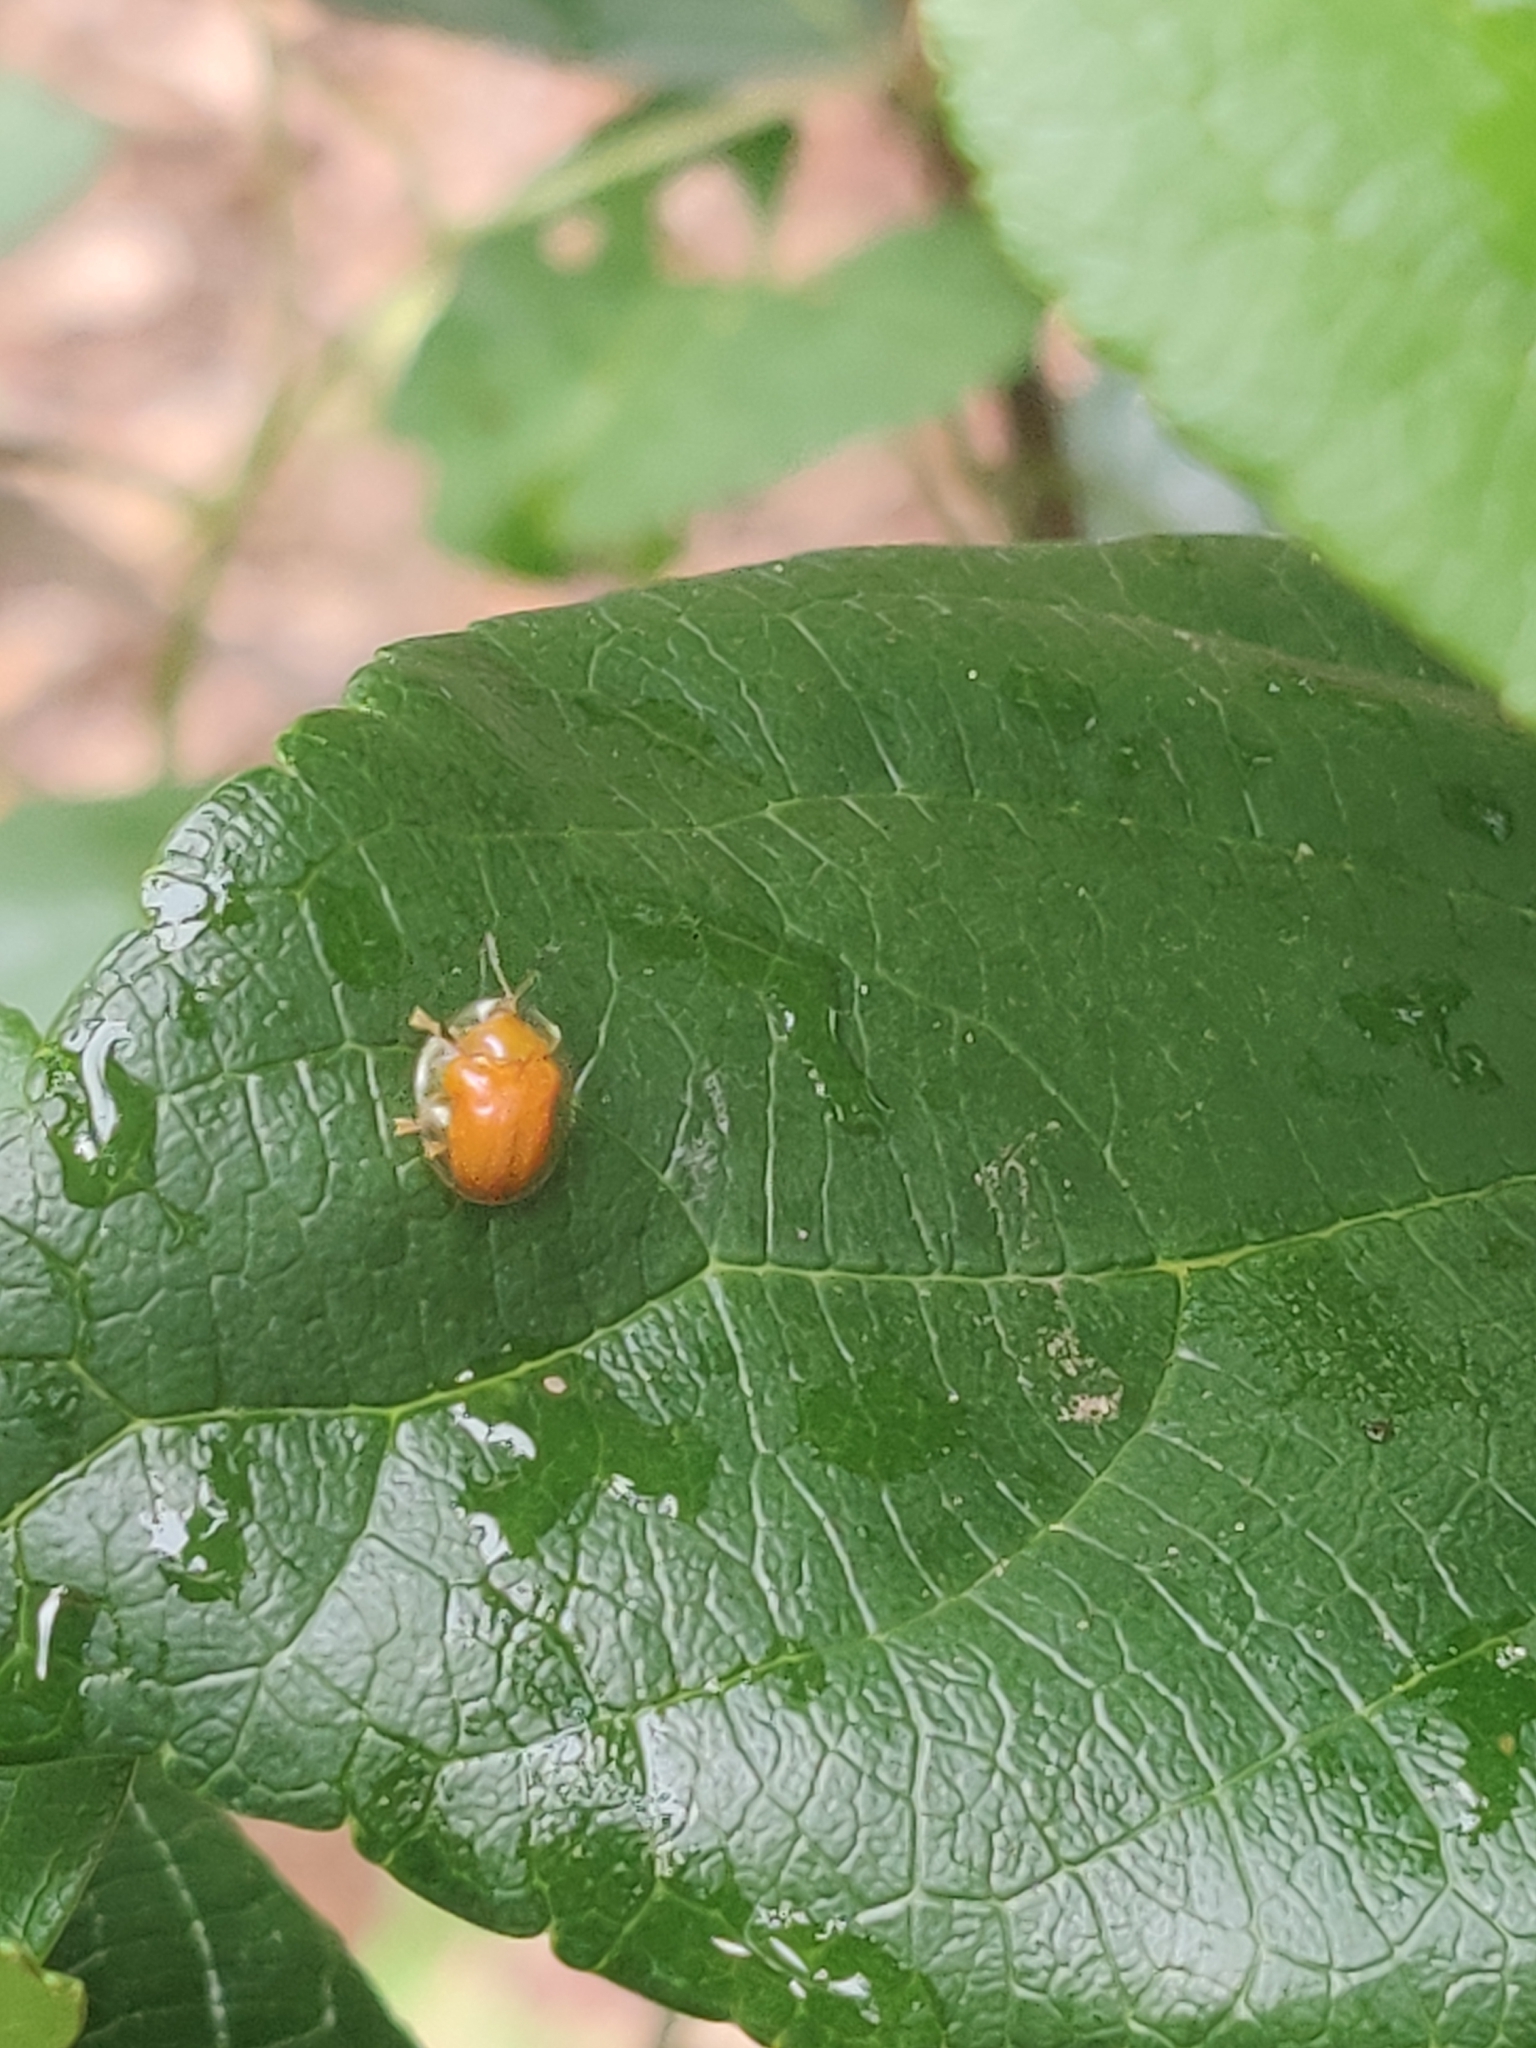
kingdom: Animalia
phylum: Arthropoda
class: Insecta
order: Coleoptera
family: Chrysomelidae
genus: Charidotella
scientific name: Charidotella sexpunctata
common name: Golden tortoise beetle
